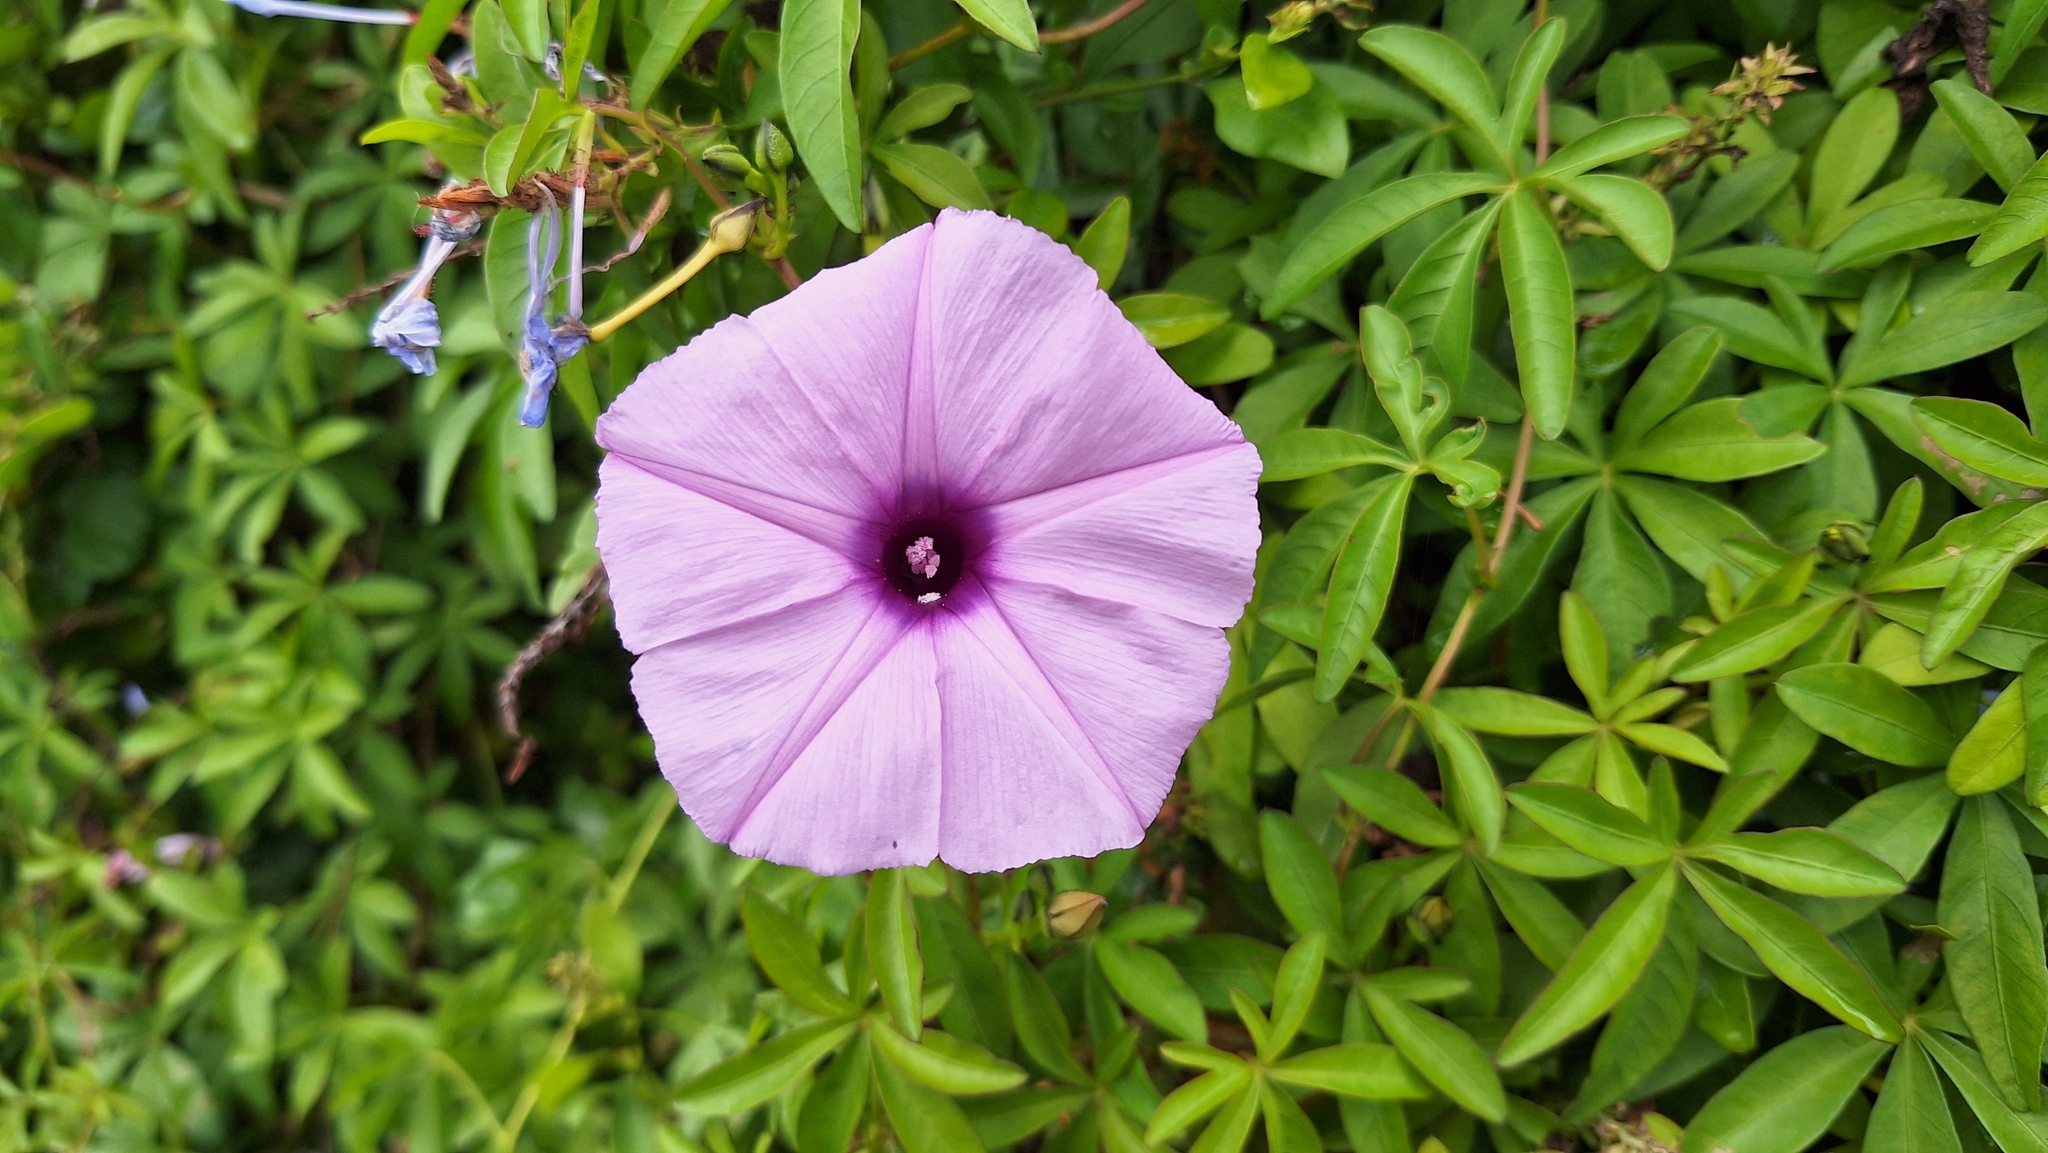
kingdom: Plantae
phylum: Tracheophyta
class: Magnoliopsida
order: Solanales
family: Convolvulaceae
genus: Ipomoea
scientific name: Ipomoea cairica
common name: Mile a minute vine
